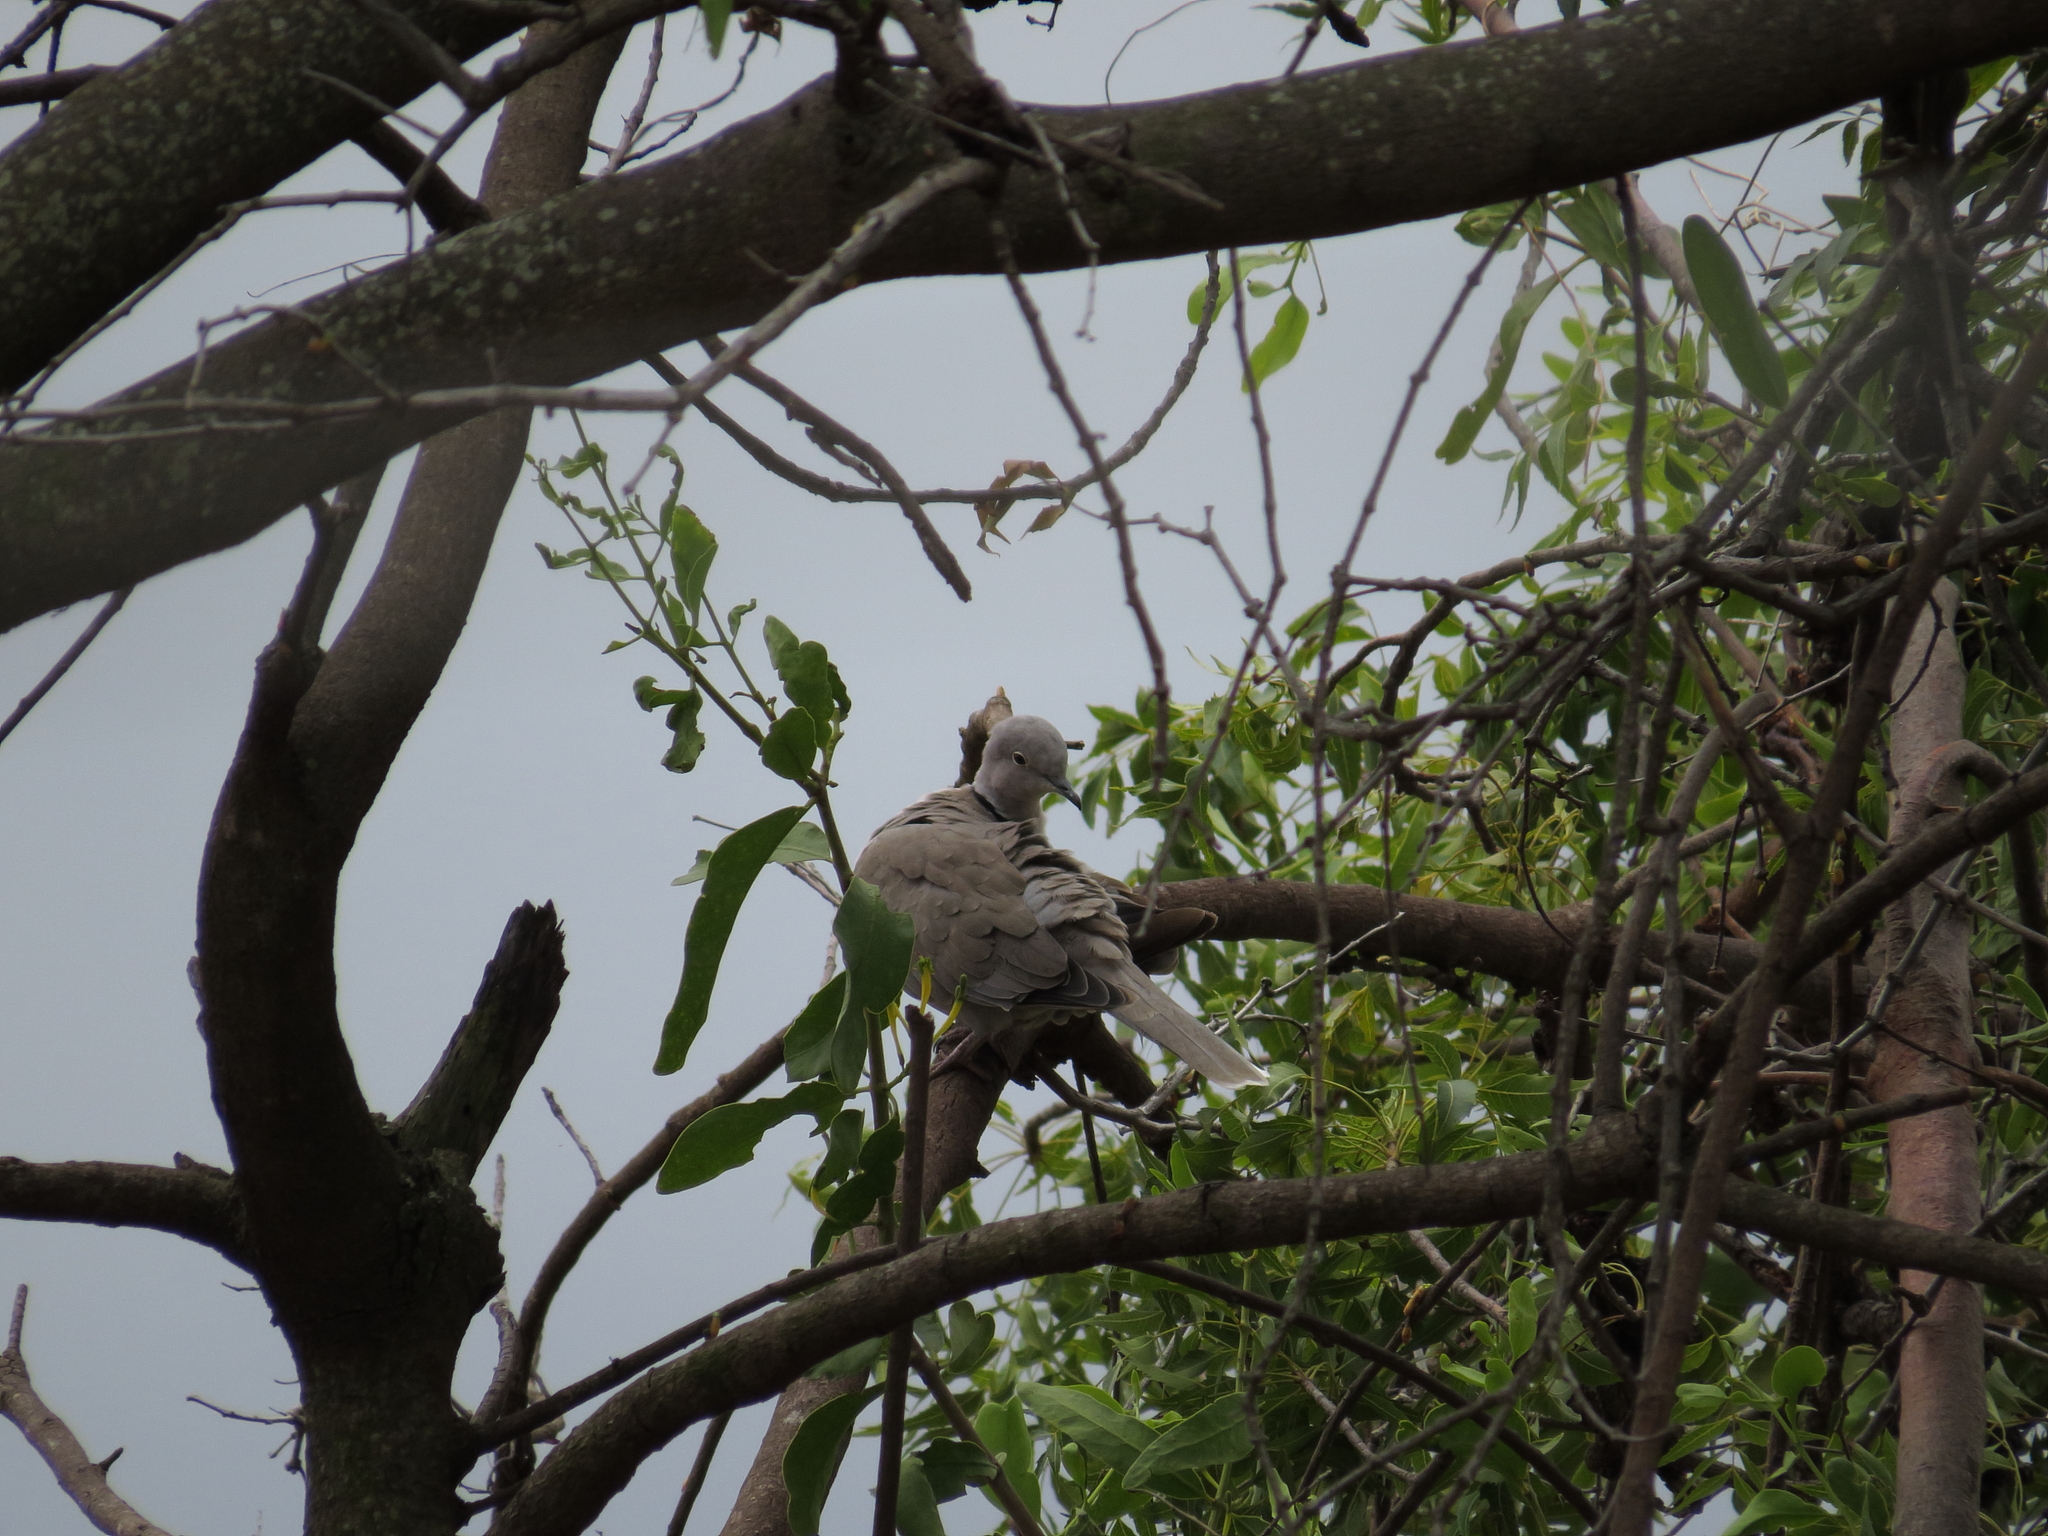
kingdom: Animalia
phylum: Chordata
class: Aves
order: Columbiformes
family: Columbidae
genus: Streptopelia
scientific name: Streptopelia decaocto
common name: Eurasian collared dove
